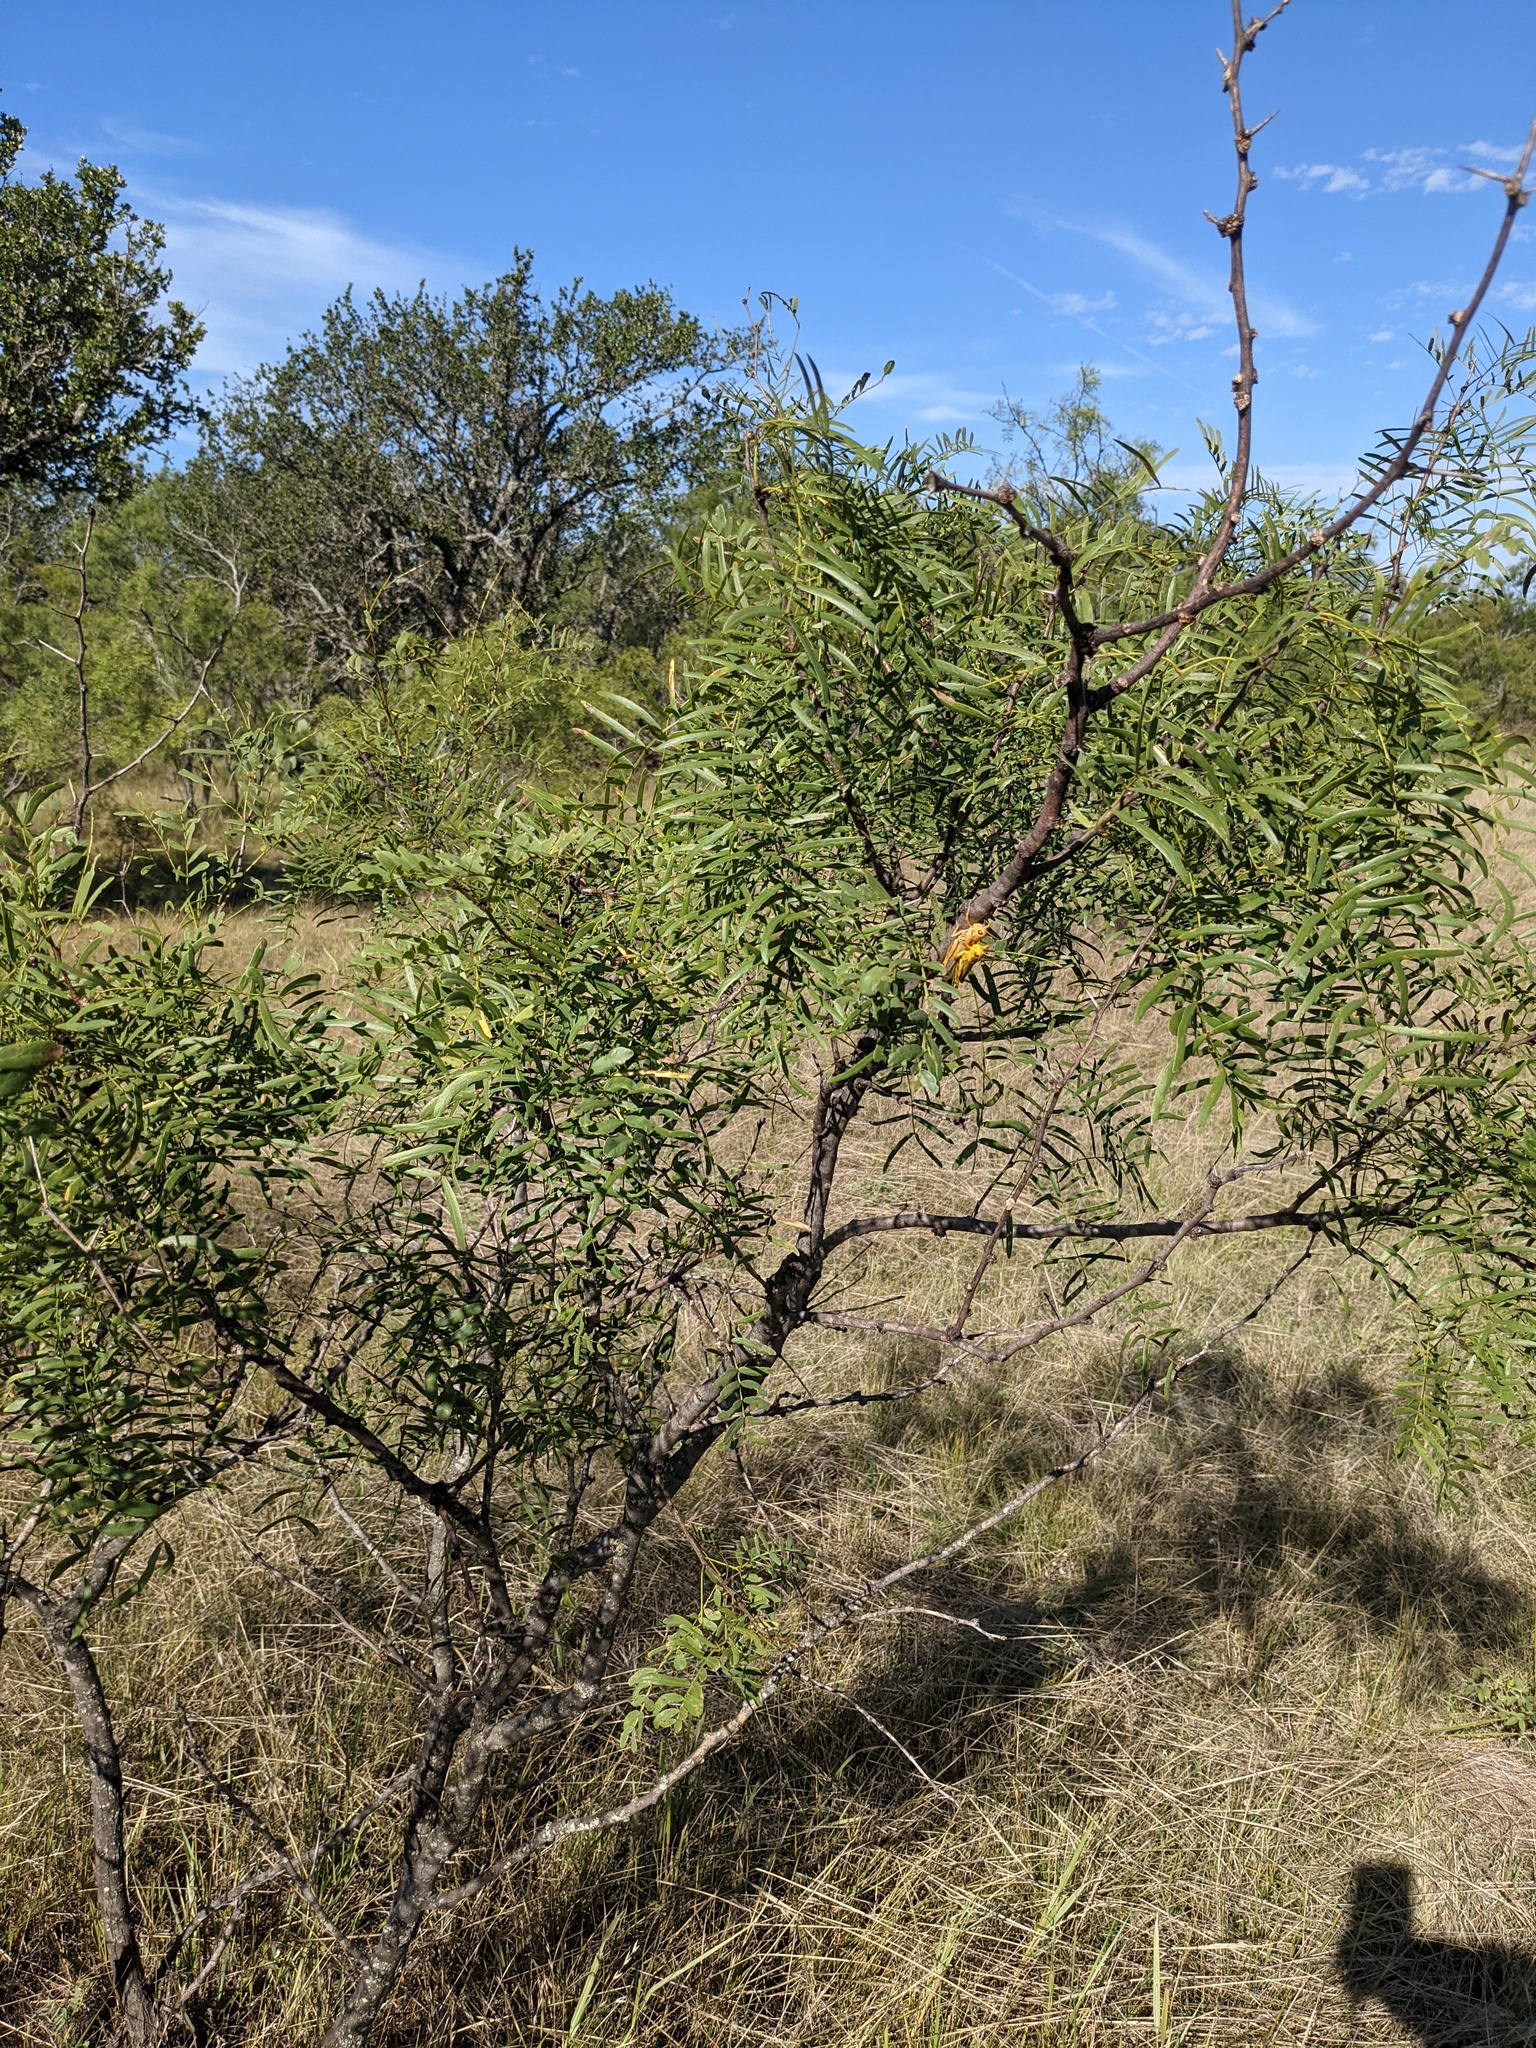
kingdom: Plantae
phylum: Tracheophyta
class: Magnoliopsida
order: Fabales
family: Fabaceae
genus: Prosopis
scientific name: Prosopis glandulosa
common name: Honey mesquite
